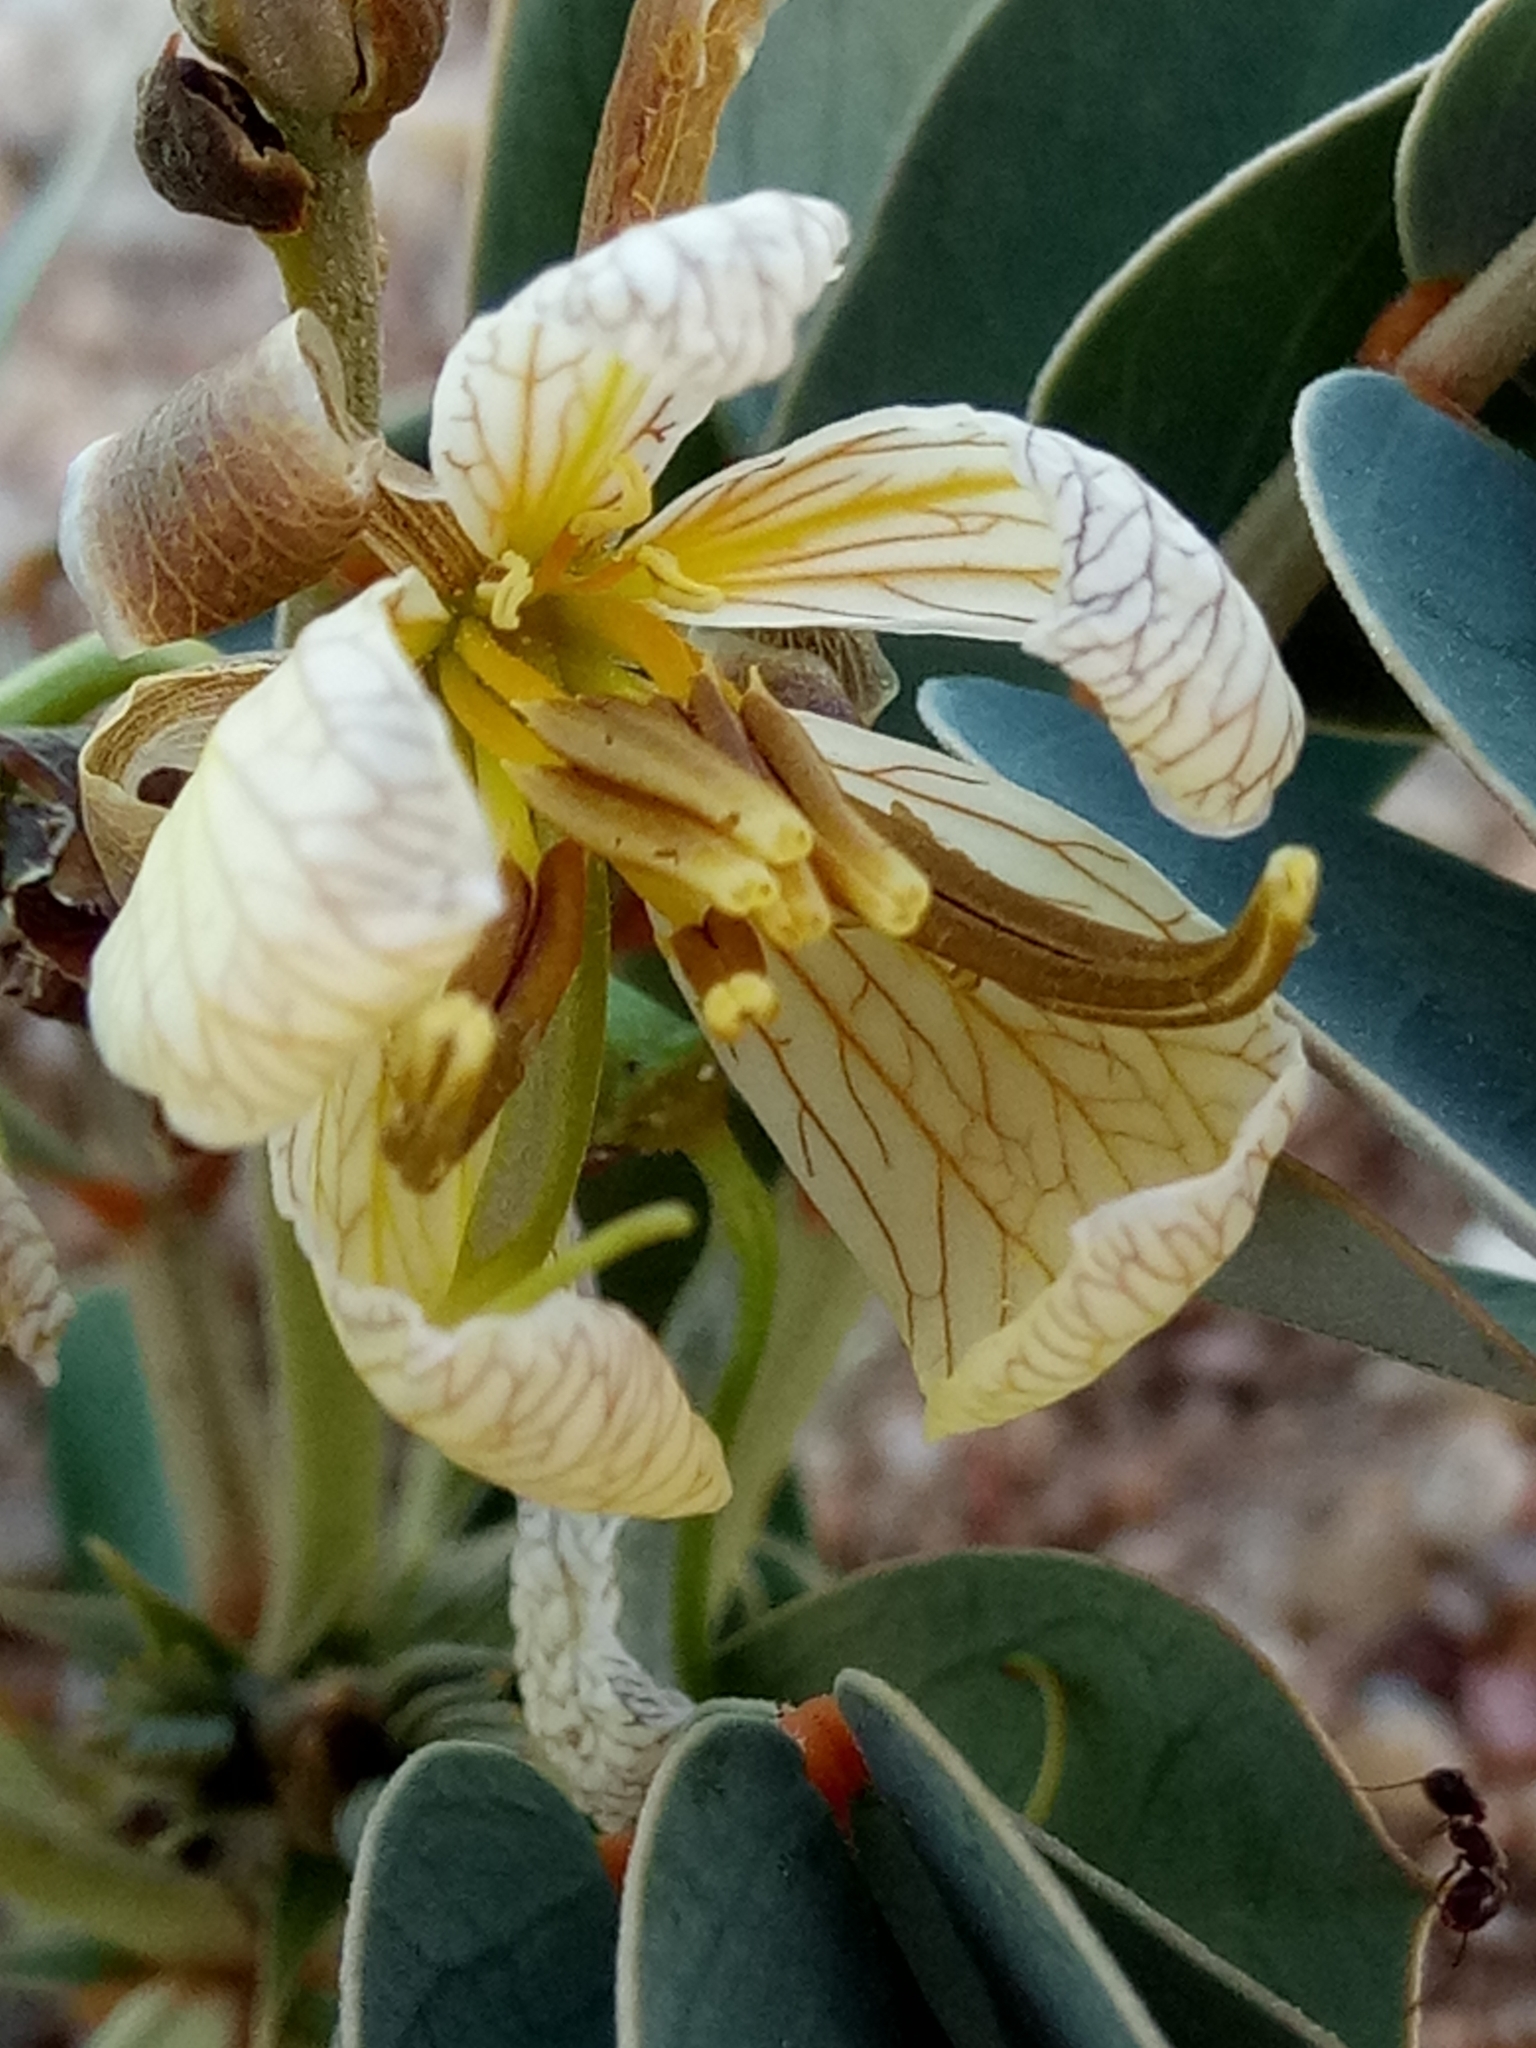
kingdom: Plantae
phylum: Tracheophyta
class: Magnoliopsida
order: Fabales
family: Fabaceae
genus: Senna
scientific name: Senna italica
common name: Port royal senna
